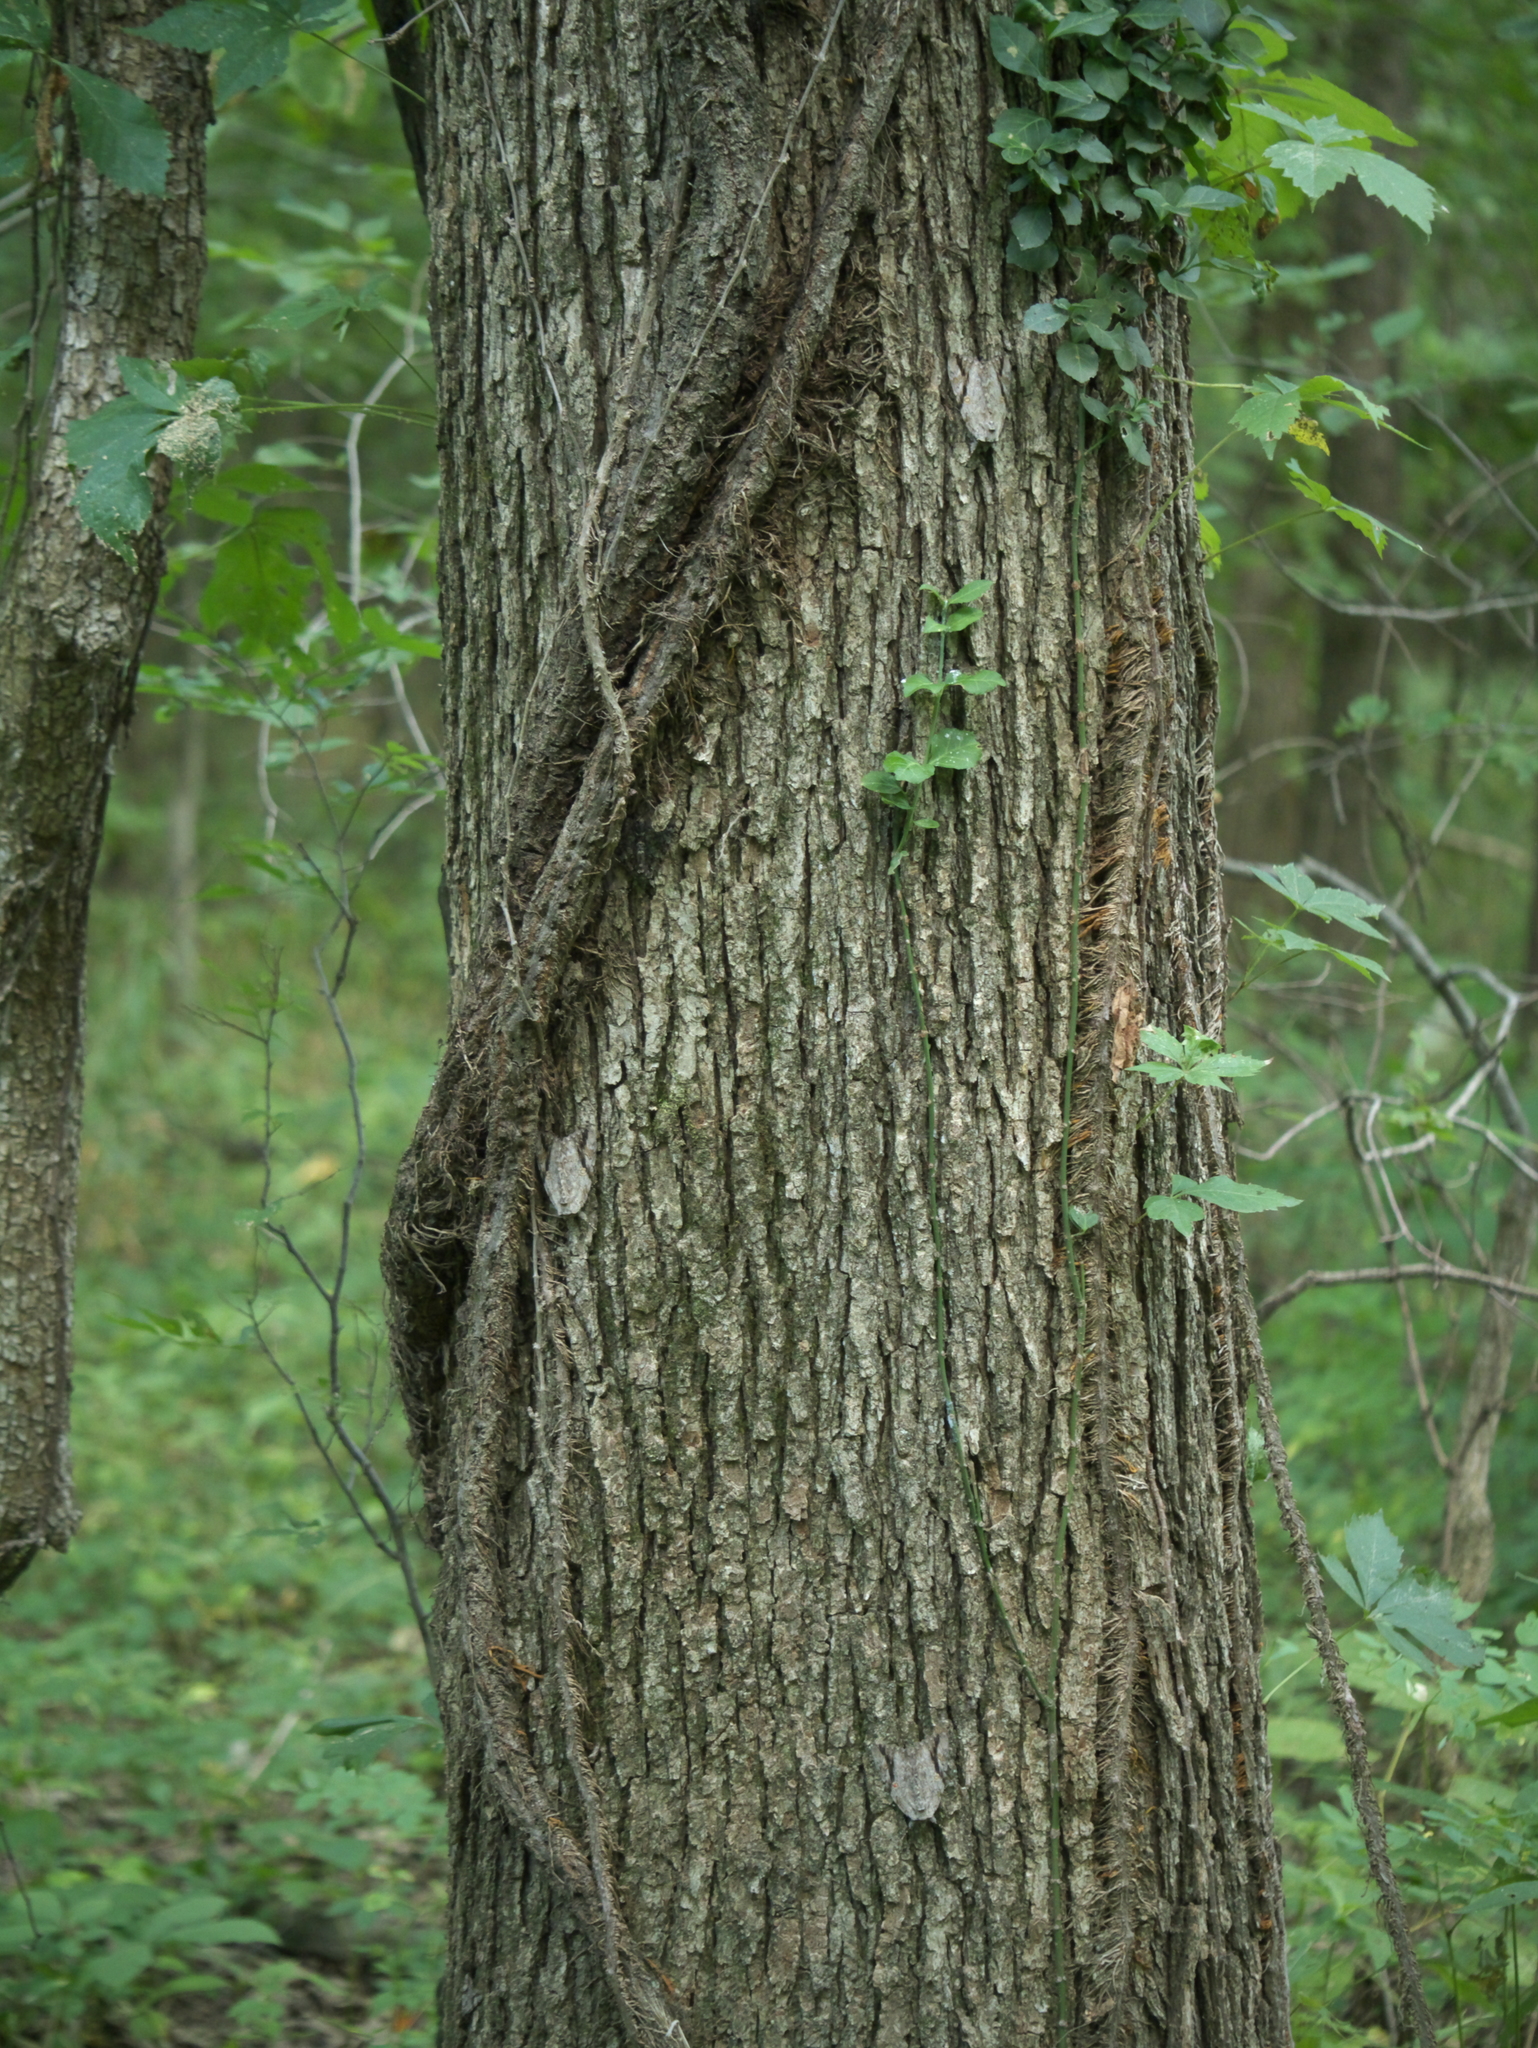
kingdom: Animalia
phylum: Arthropoda
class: Insecta
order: Lepidoptera
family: Erebidae
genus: Catocala
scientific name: Catocala maestosa
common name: Sad underwing
